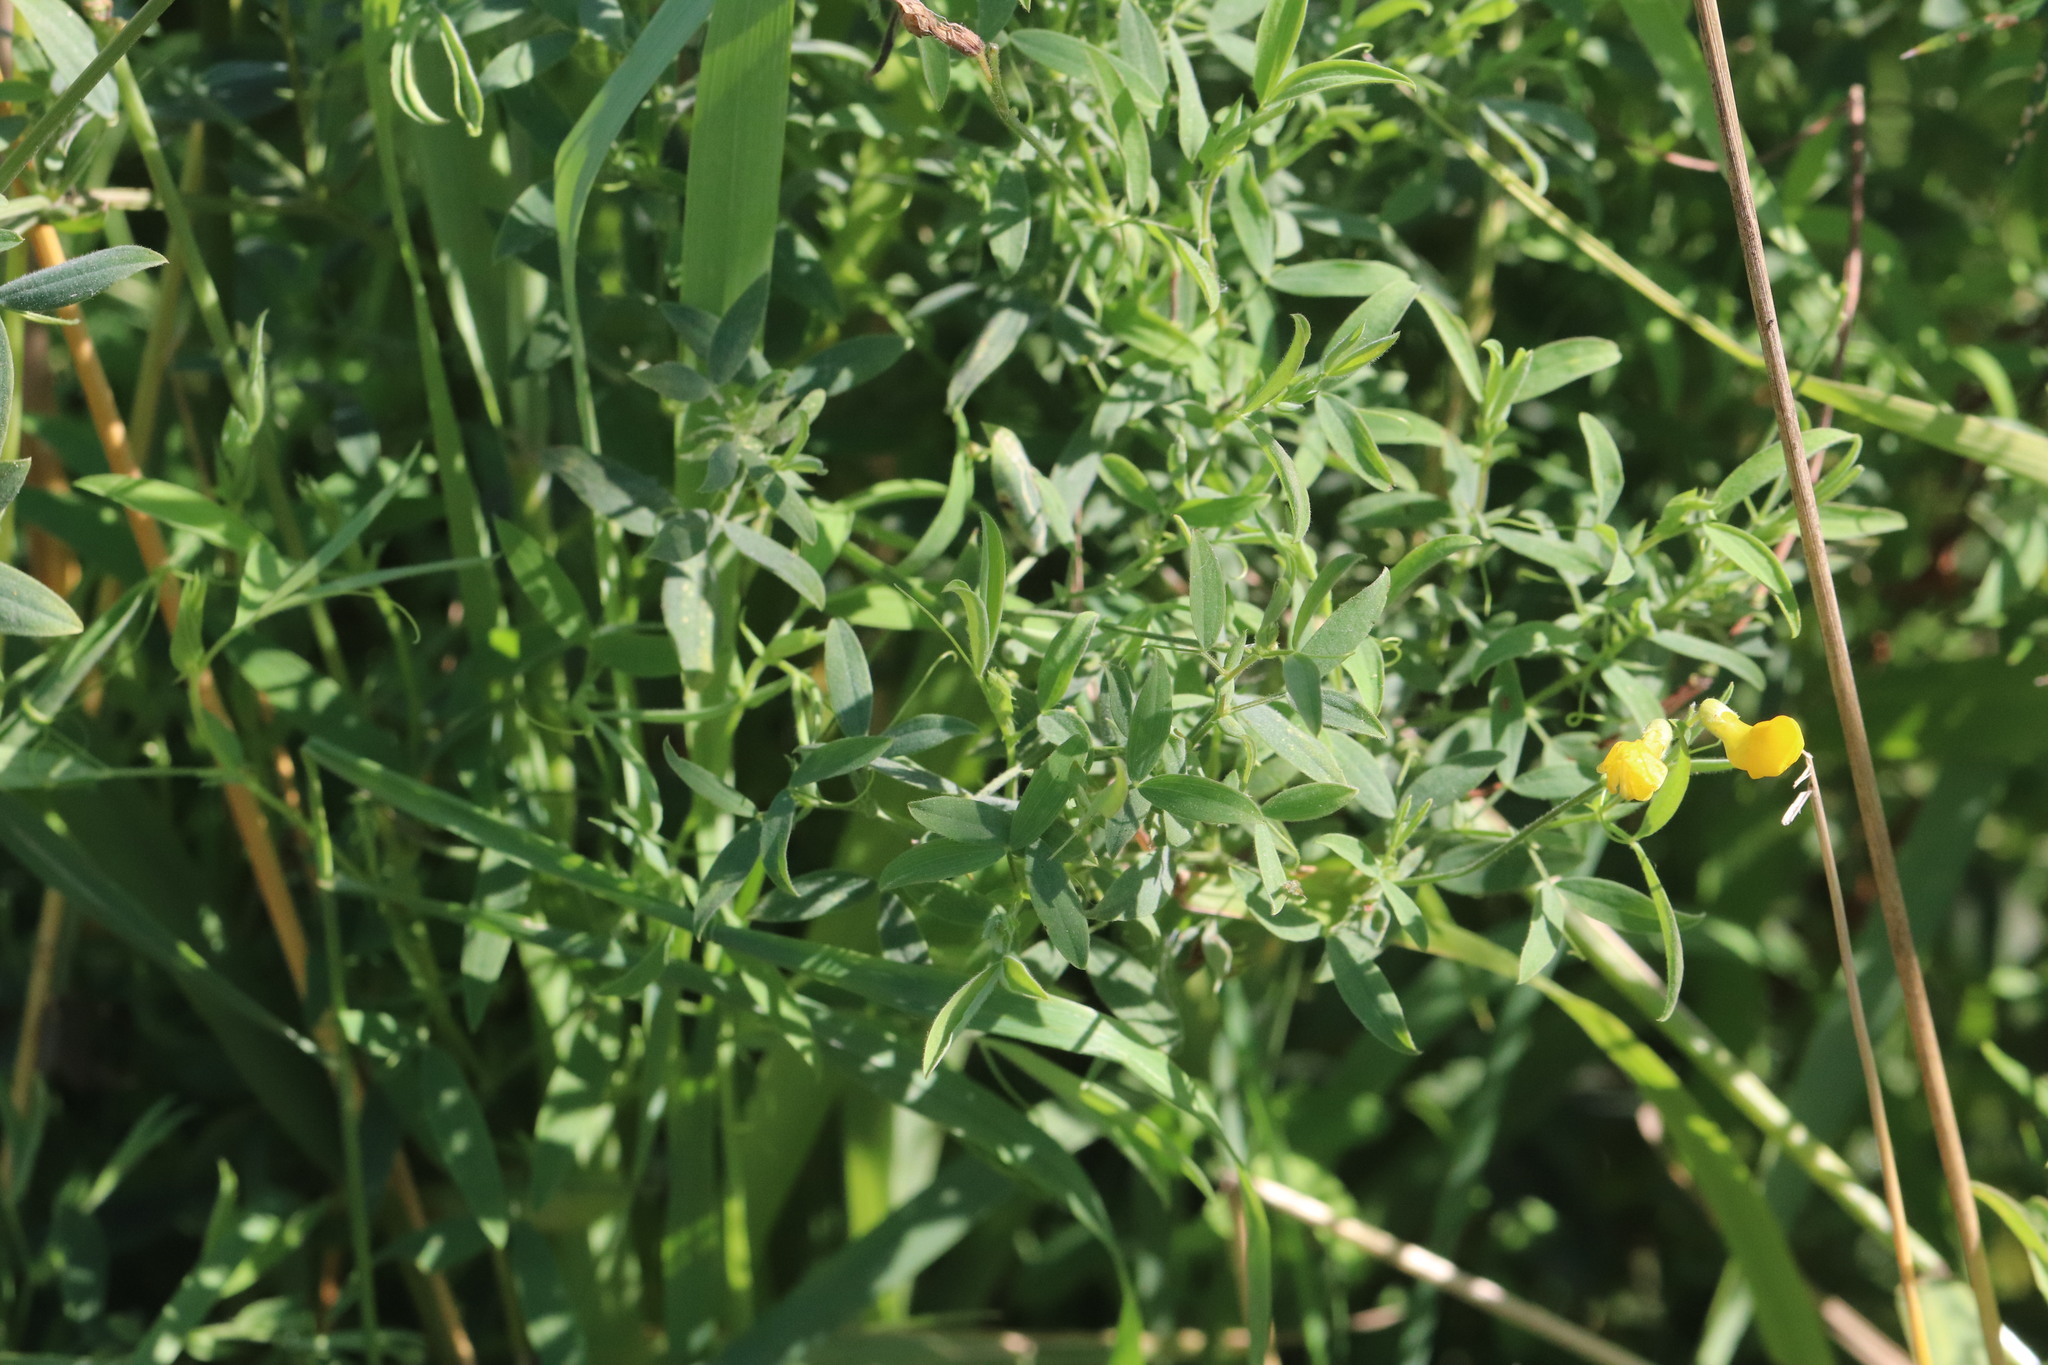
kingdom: Plantae
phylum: Tracheophyta
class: Magnoliopsida
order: Fabales
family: Fabaceae
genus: Lathyrus
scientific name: Lathyrus pratensis
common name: Meadow vetchling
